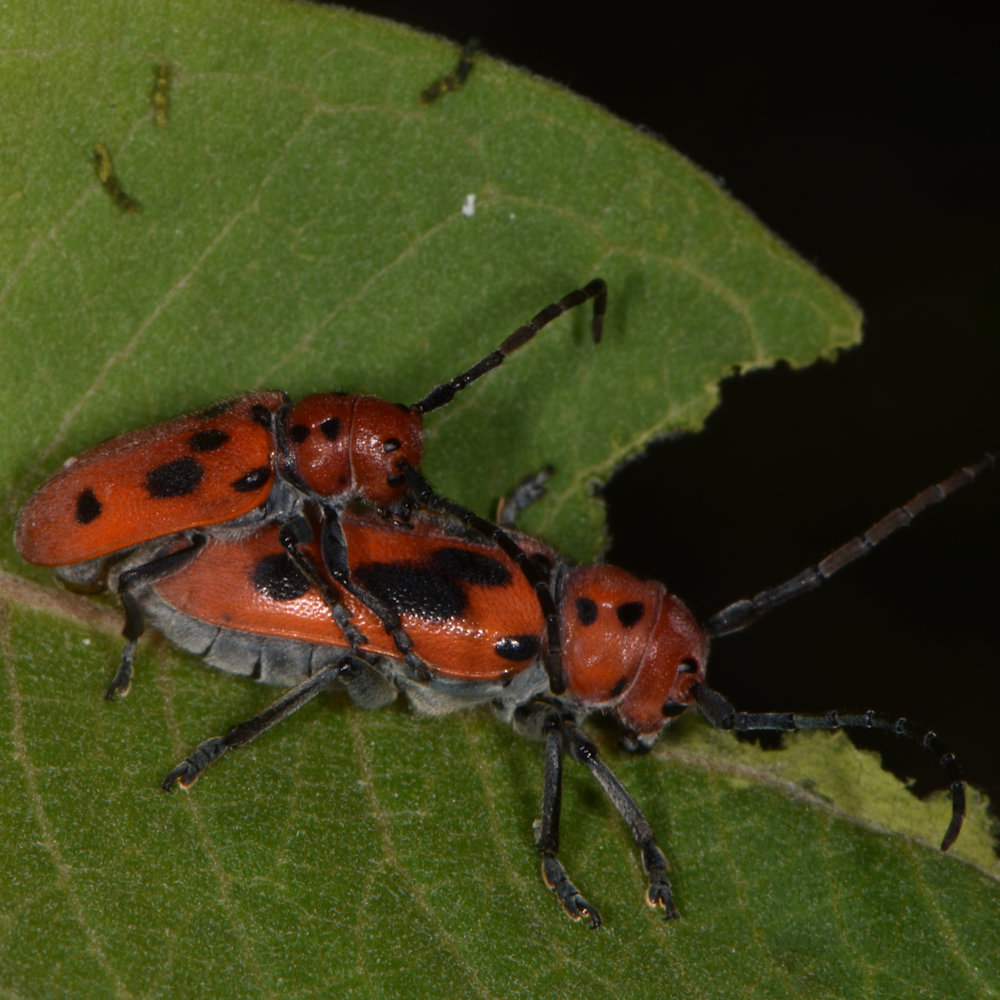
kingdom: Animalia
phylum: Arthropoda
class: Insecta
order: Coleoptera
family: Cerambycidae
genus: Tetraopes
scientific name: Tetraopes tetrophthalmus
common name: Red milkweed beetle
